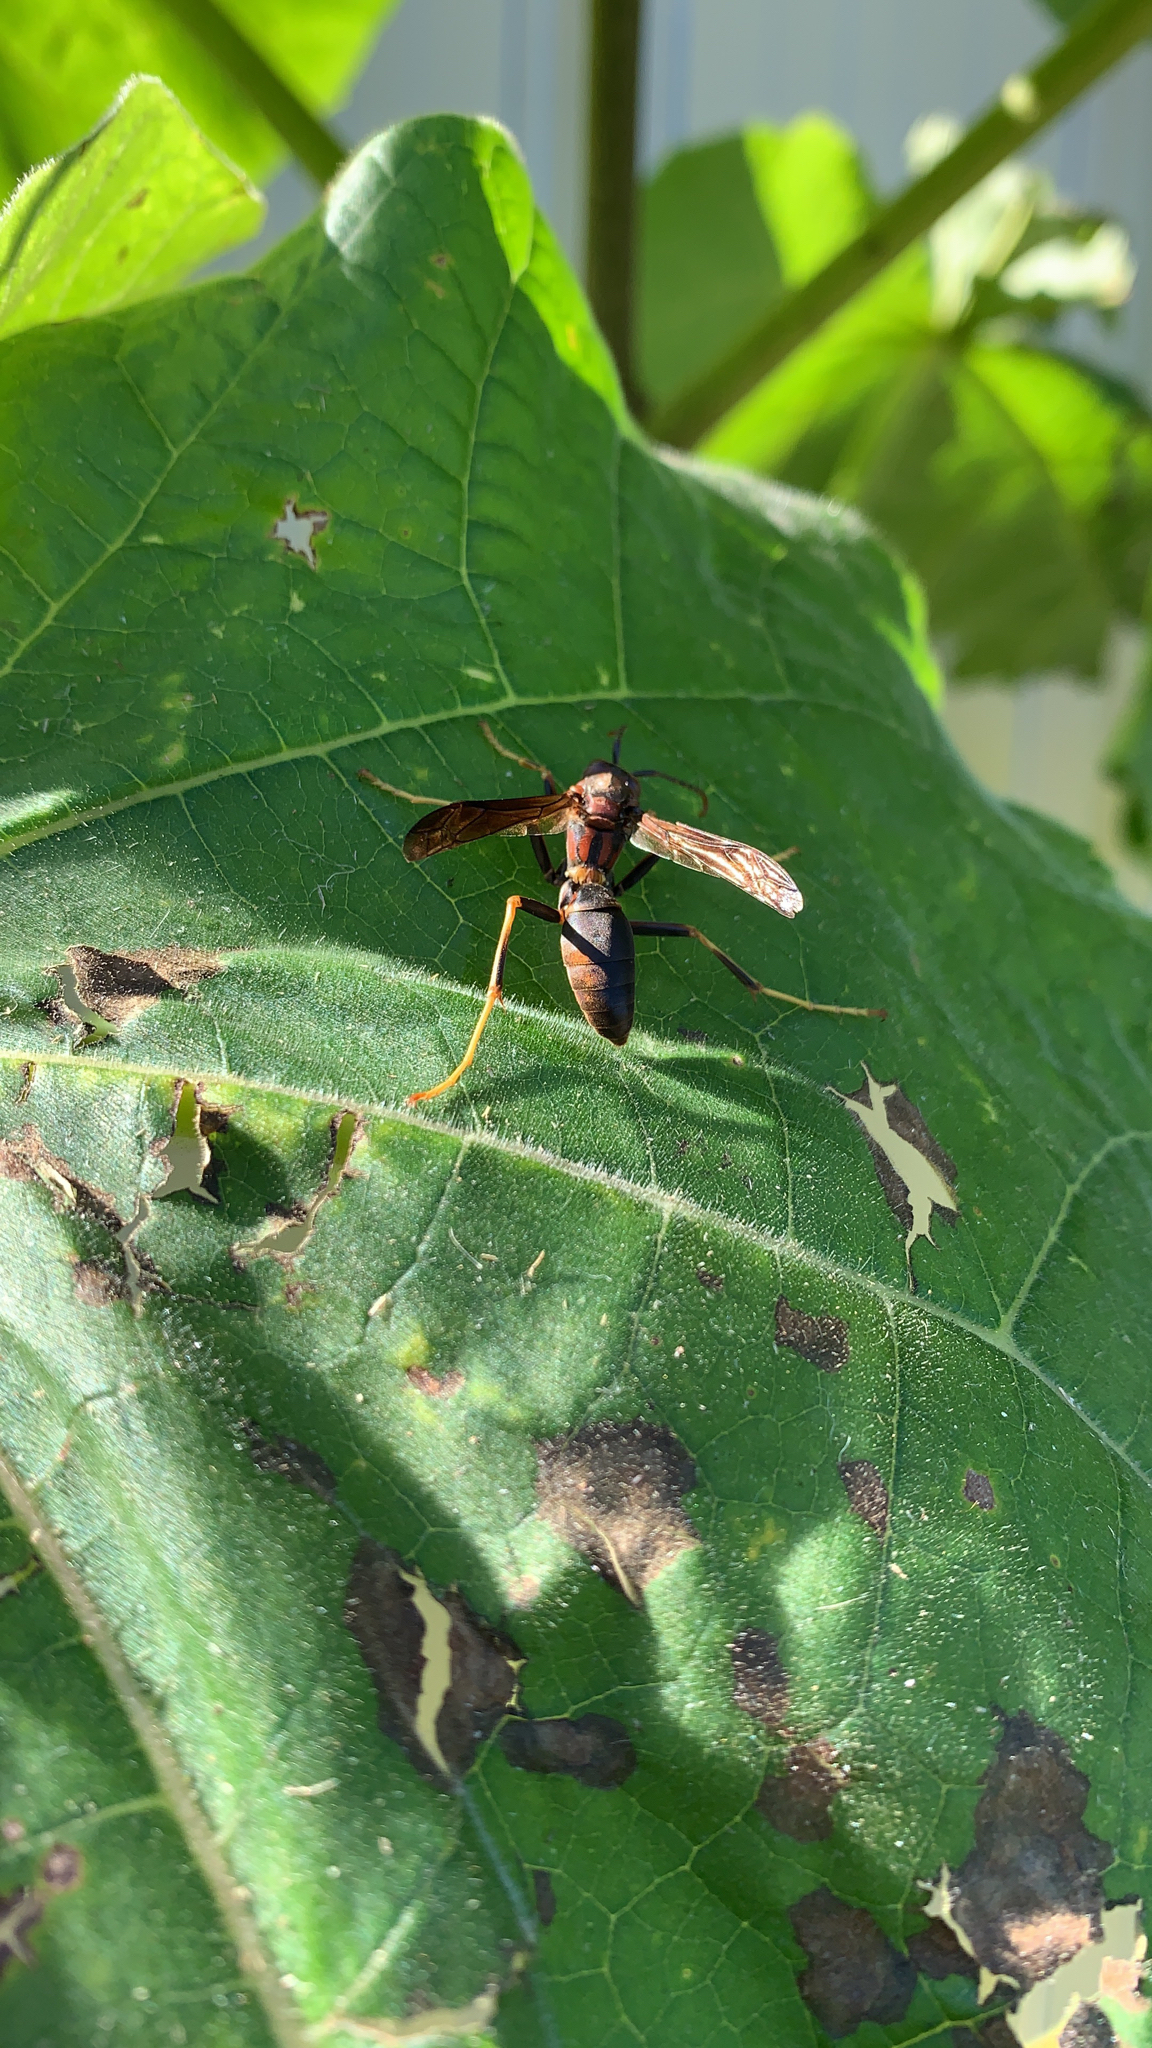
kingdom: Animalia
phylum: Arthropoda
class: Insecta
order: Hymenoptera
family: Eumenidae
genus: Polistes
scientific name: Polistes metricus
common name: Metric paper wasp
